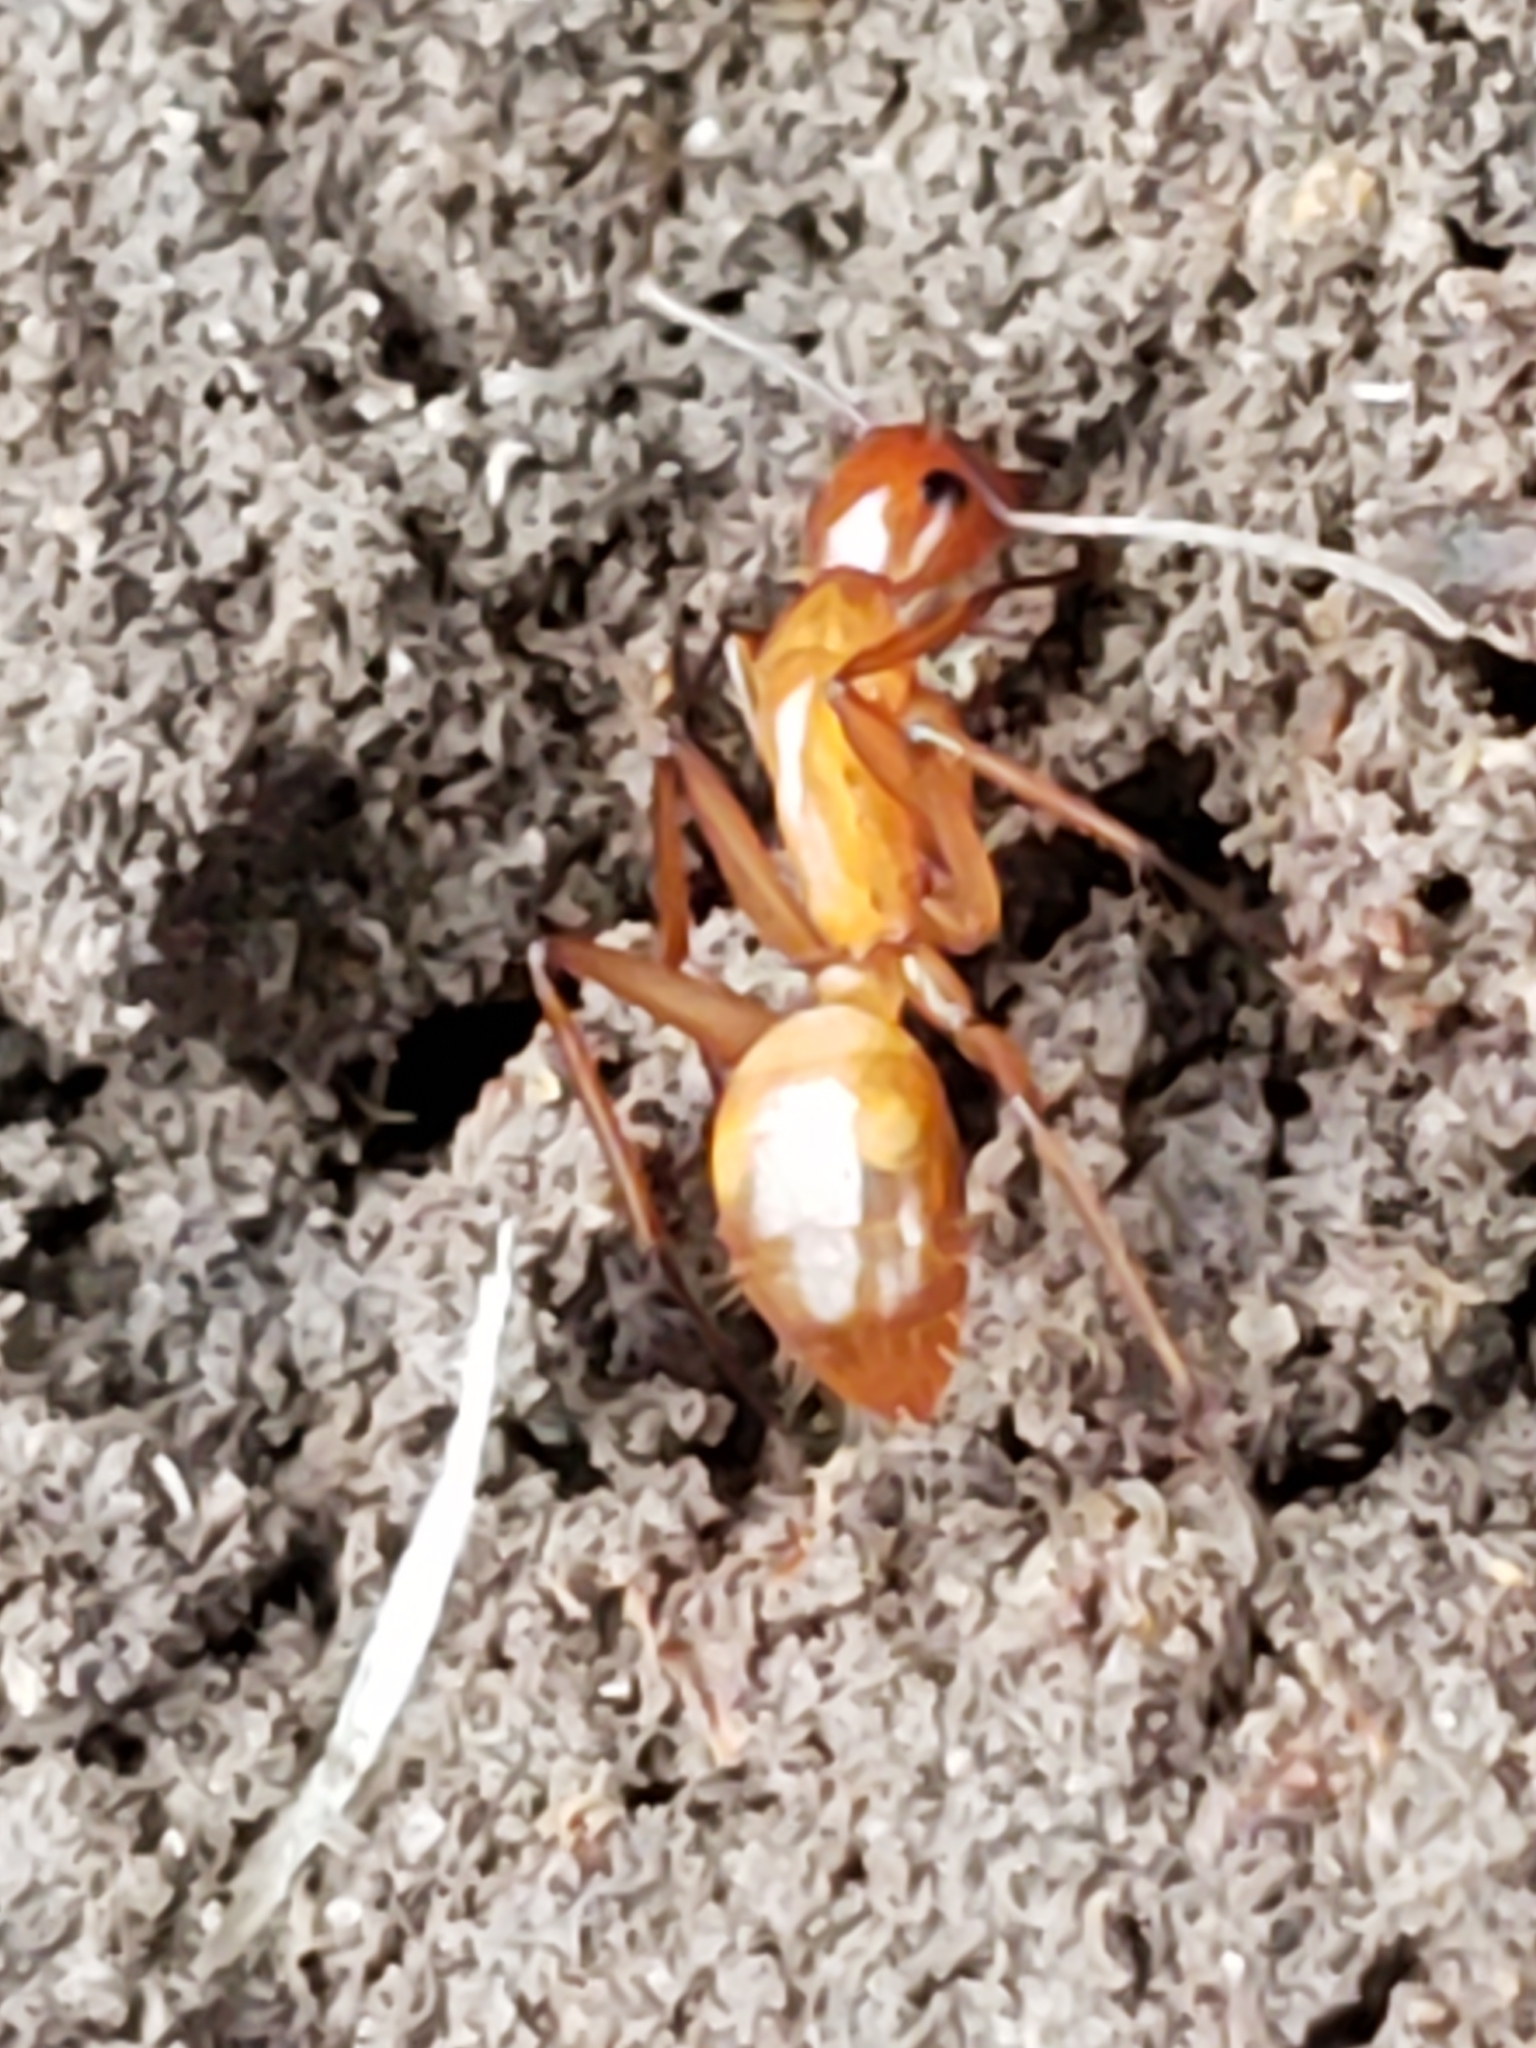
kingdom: Animalia
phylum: Arthropoda
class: Insecta
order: Hymenoptera
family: Formicidae
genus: Camponotus
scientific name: Camponotus castaneus
